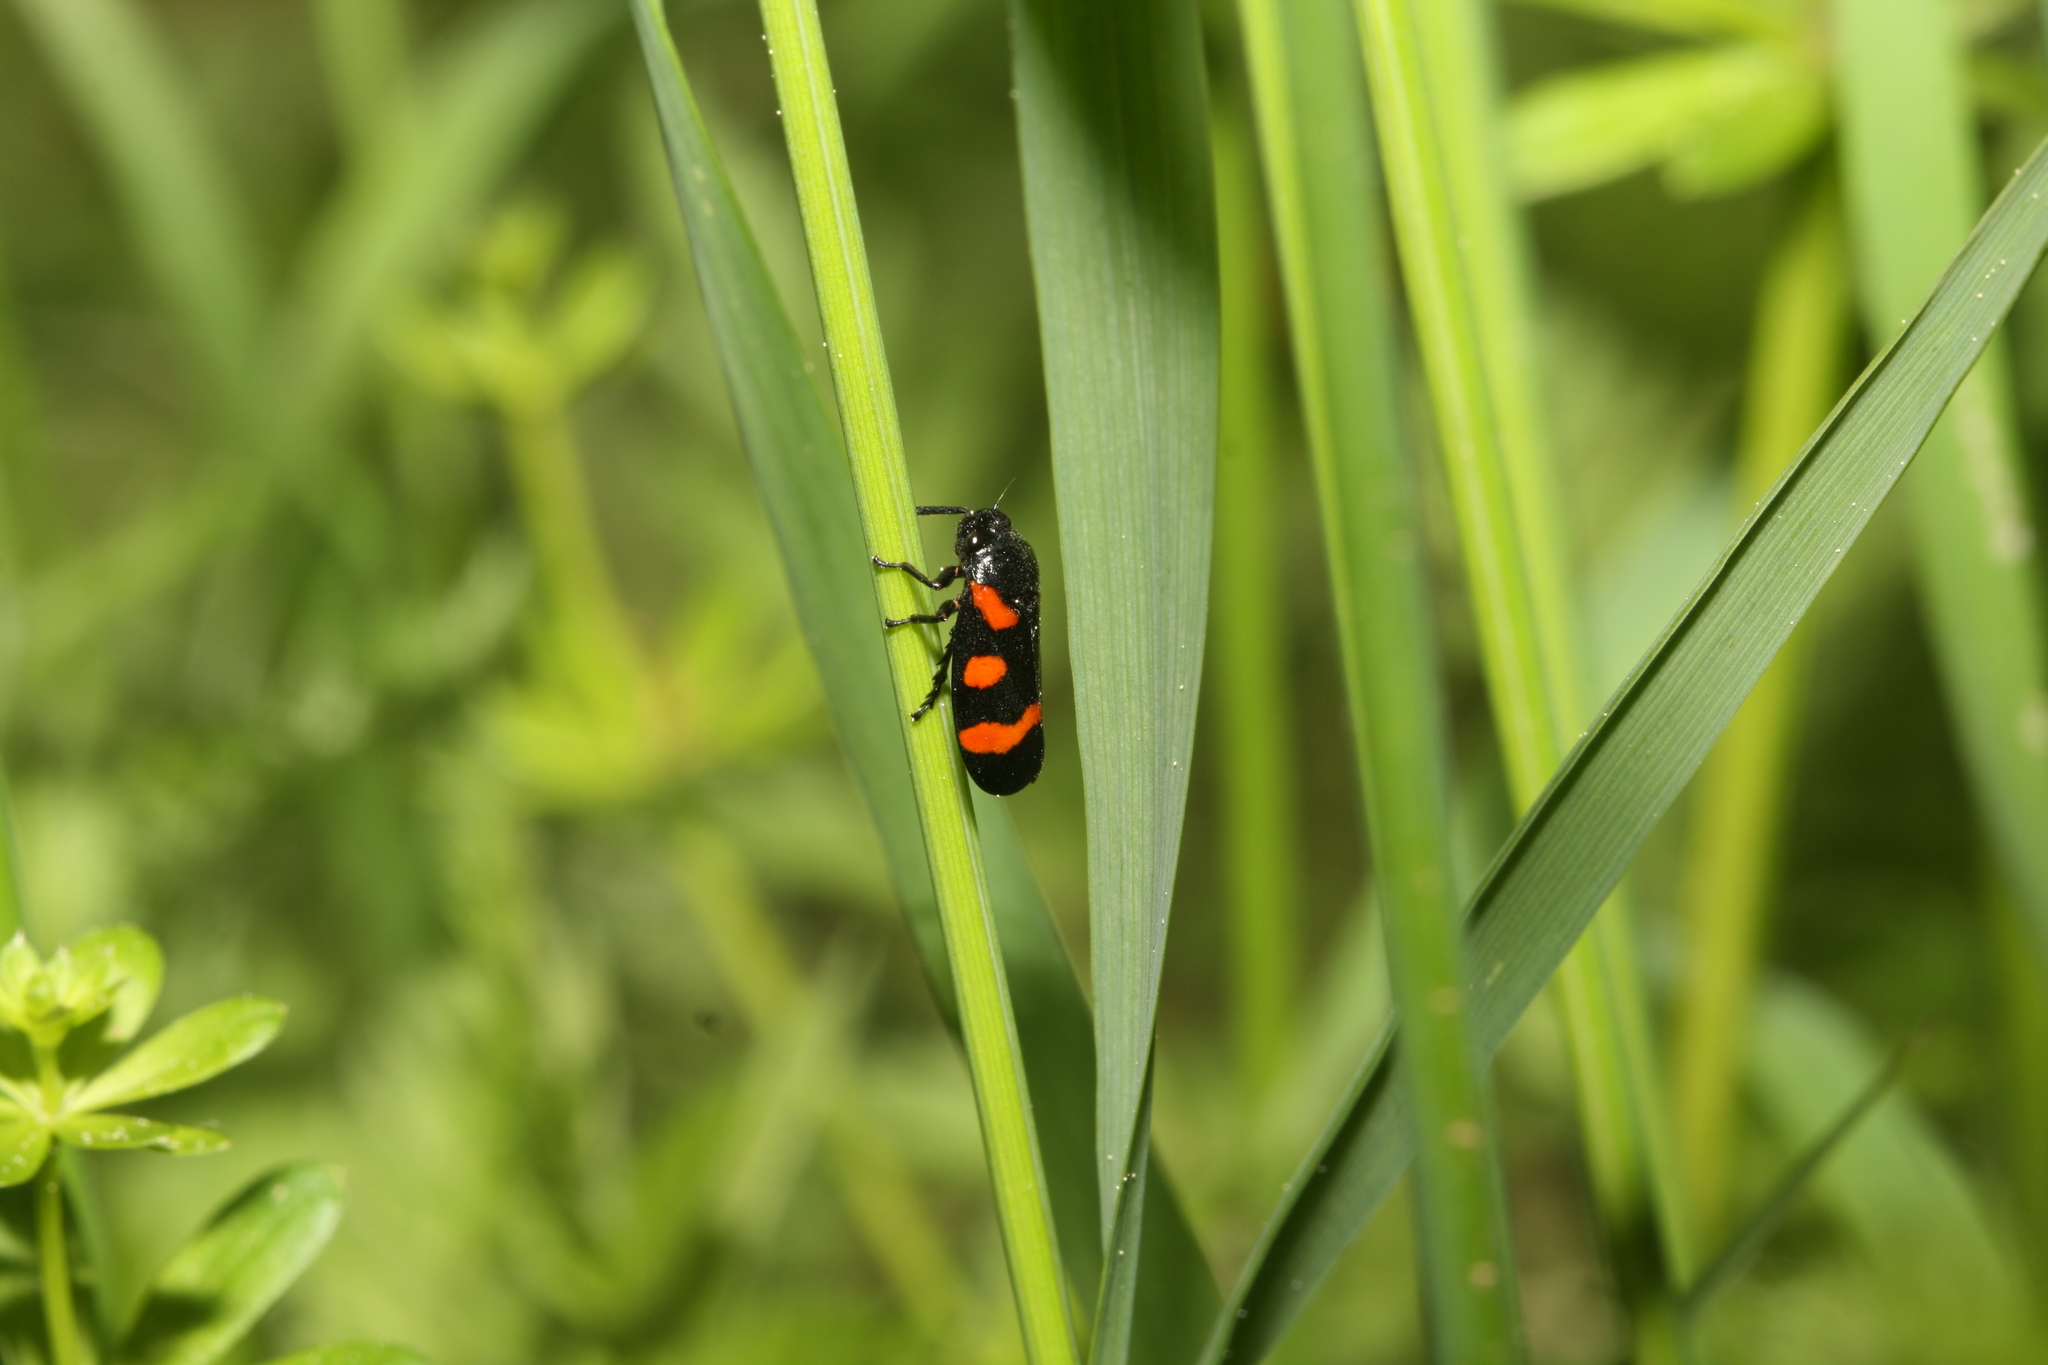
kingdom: Animalia
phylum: Arthropoda
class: Insecta
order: Hemiptera
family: Cercopidae
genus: Cercopis
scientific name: Cercopis sanguinolenta
